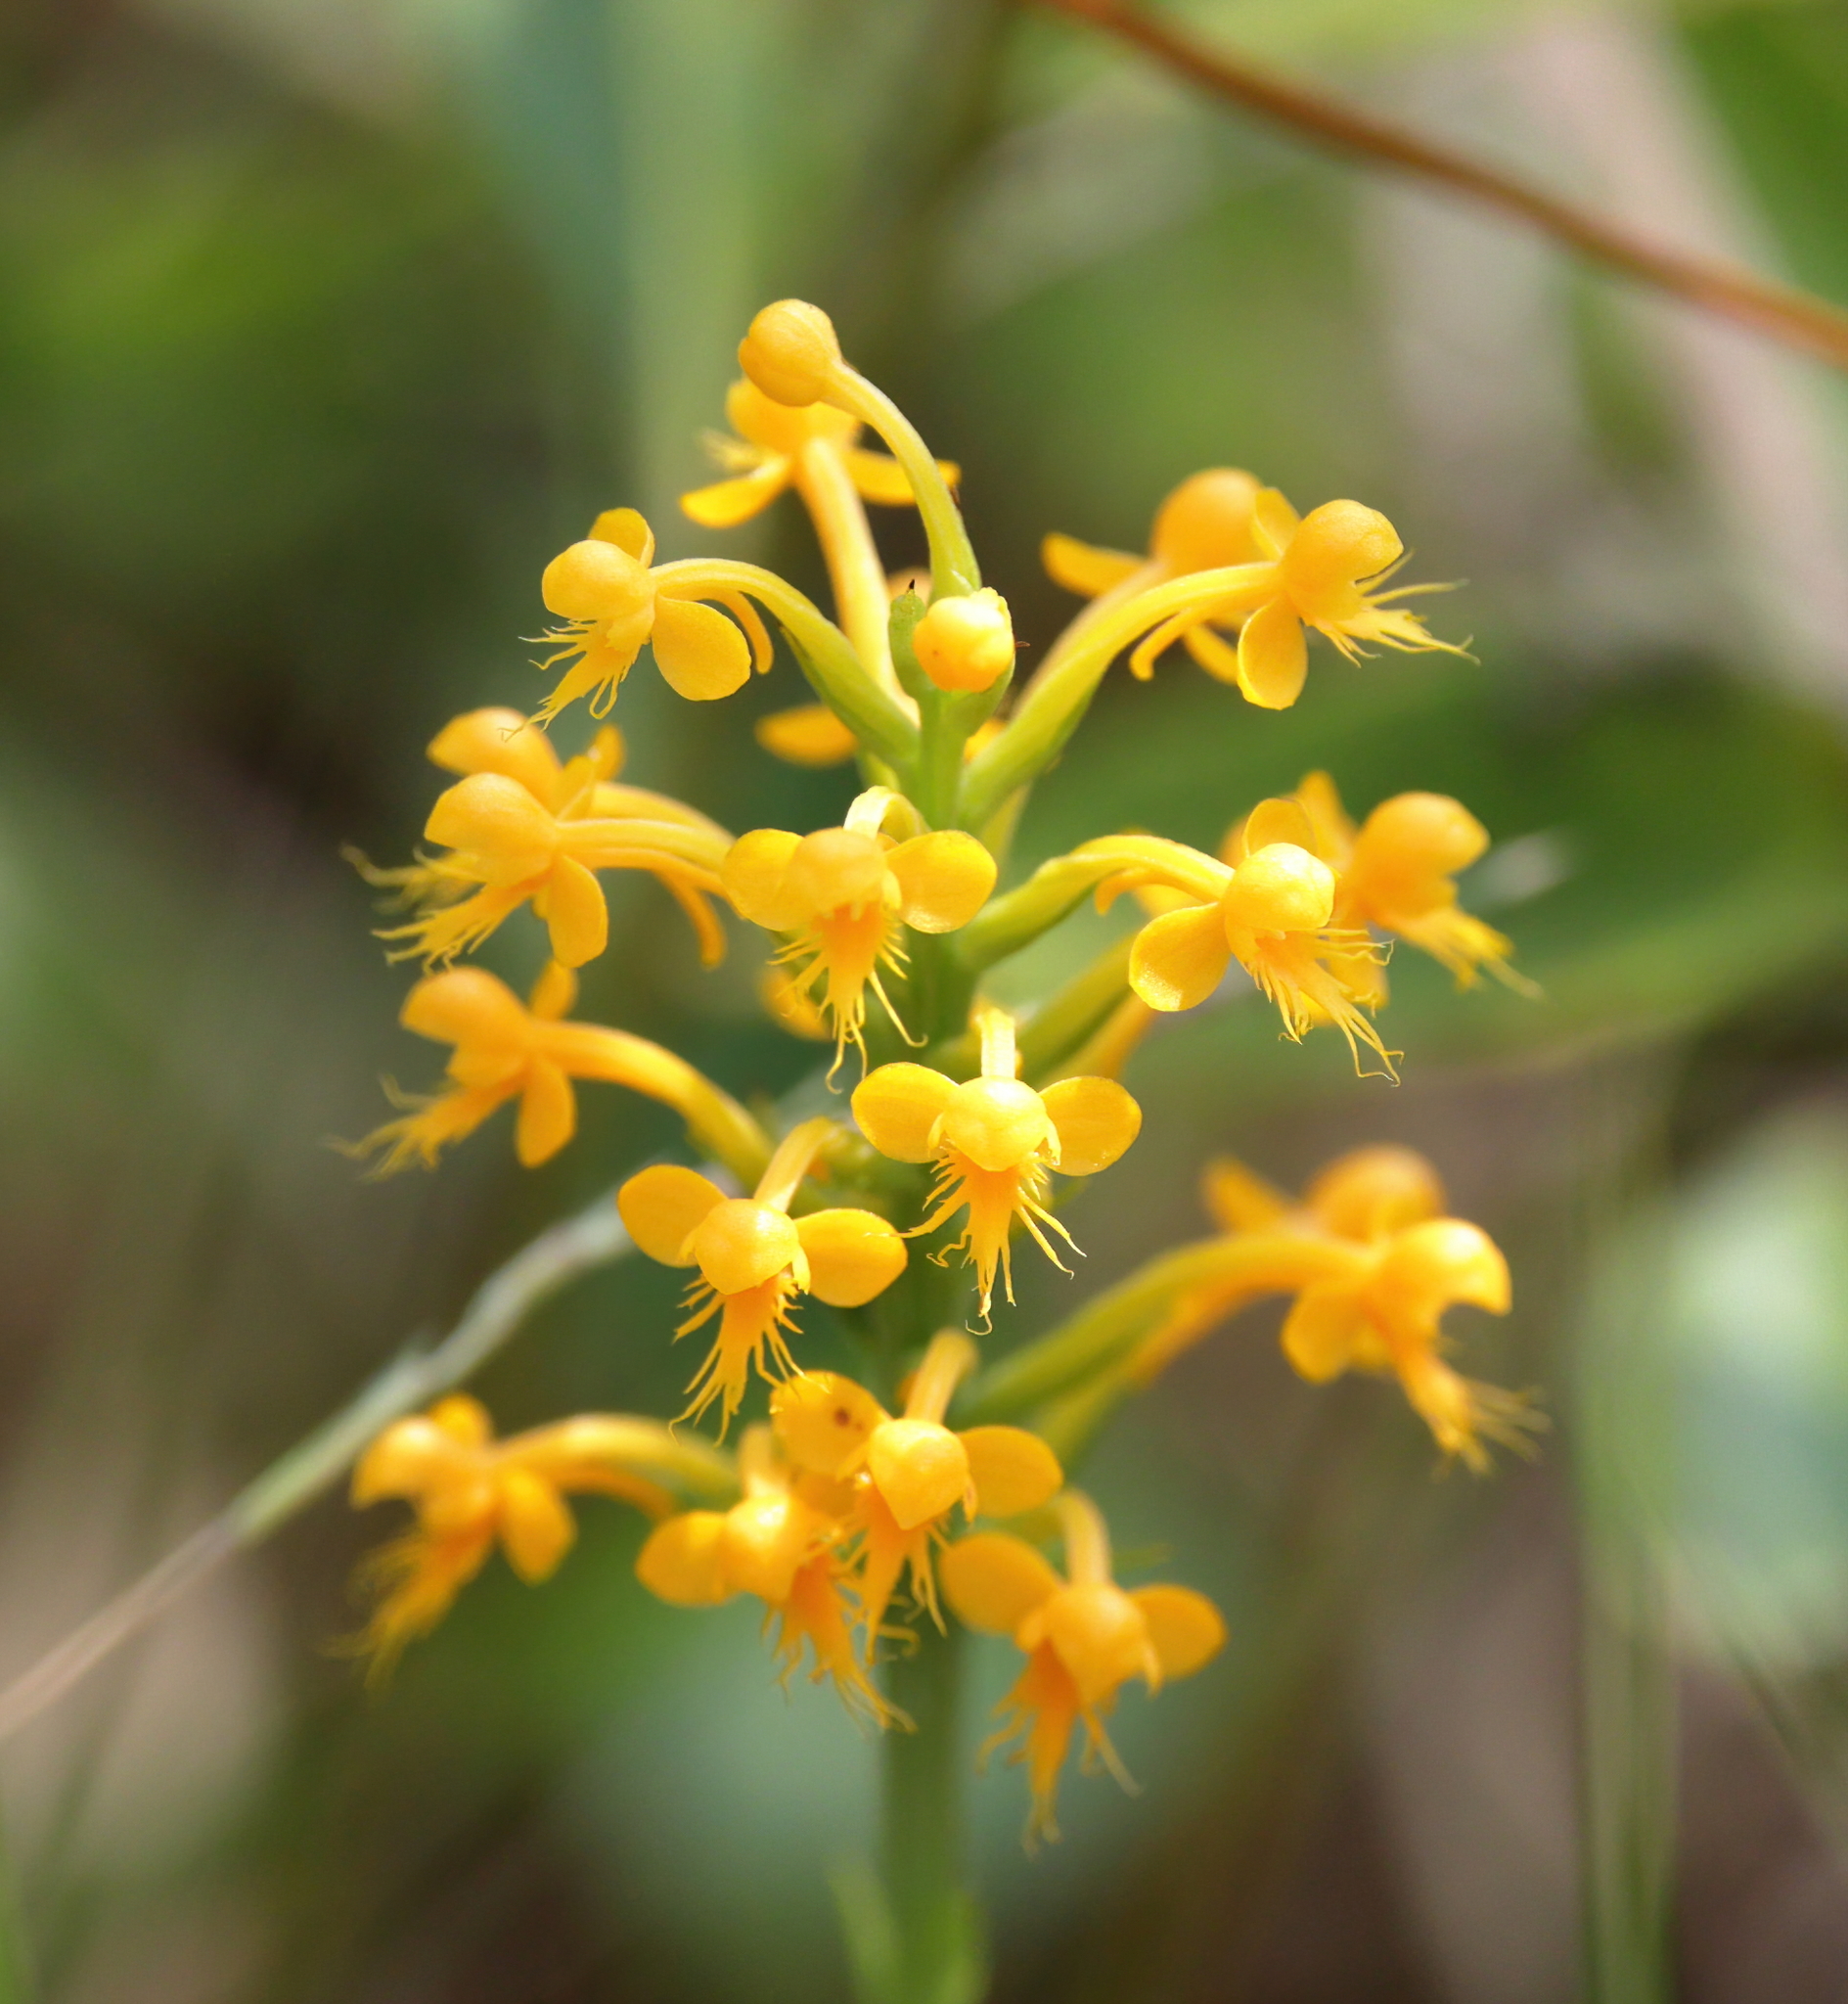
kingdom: Plantae
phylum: Tracheophyta
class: Liliopsida
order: Asparagales
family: Orchidaceae
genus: Platanthera
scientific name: Platanthera cristata
